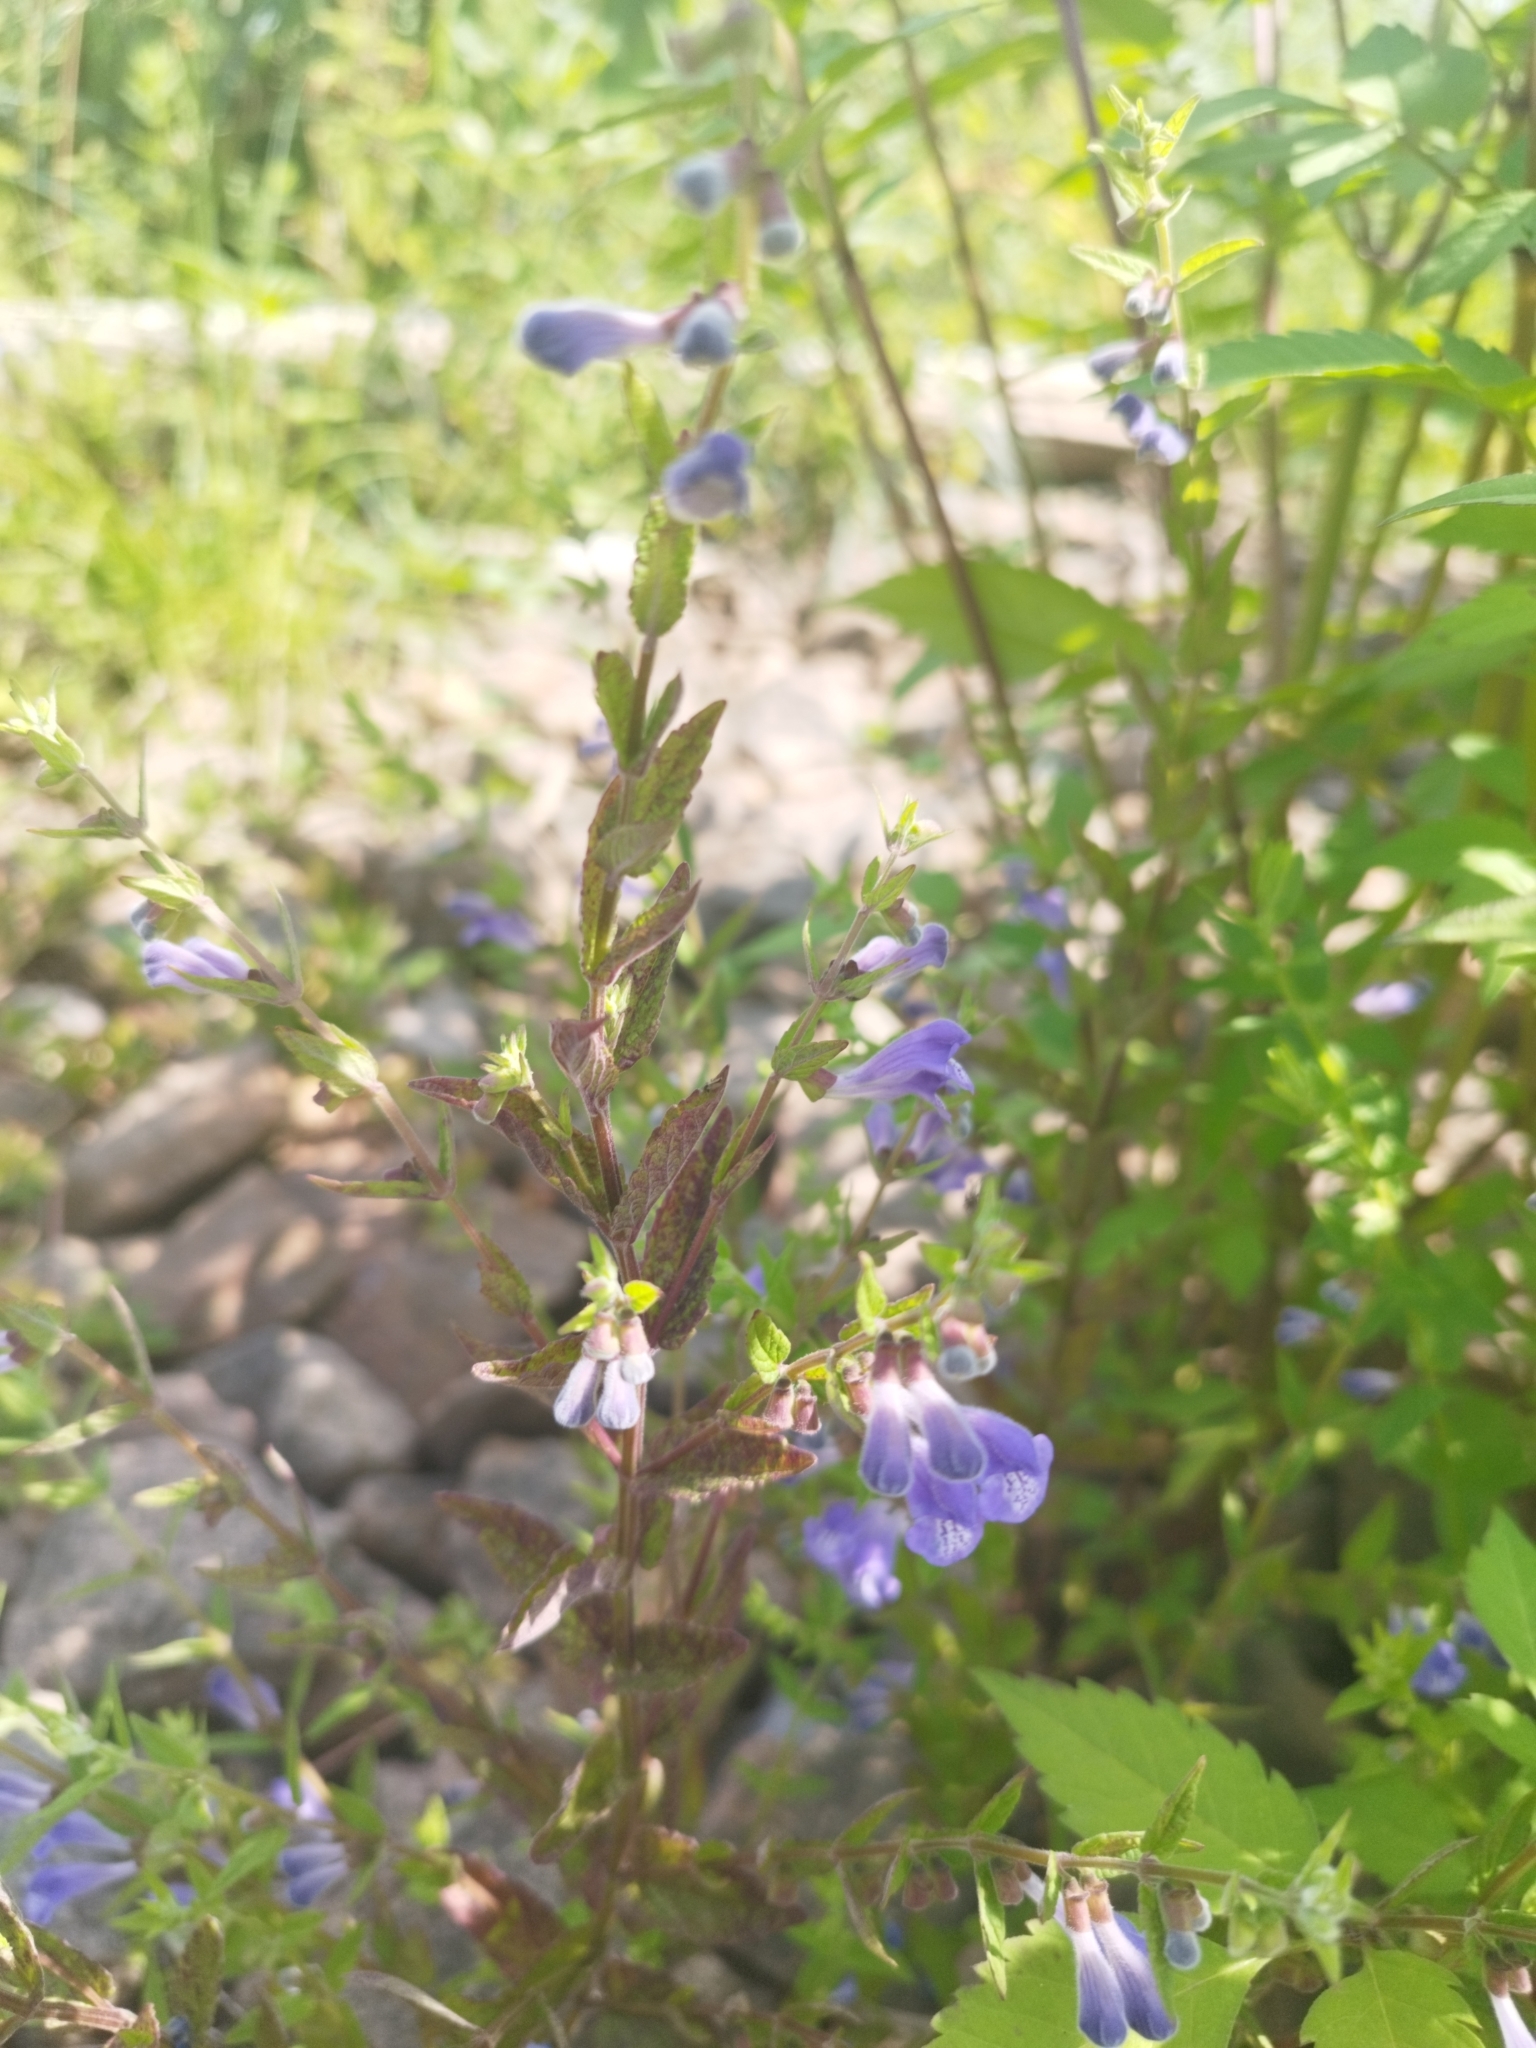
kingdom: Plantae
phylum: Tracheophyta
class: Magnoliopsida
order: Lamiales
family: Lamiaceae
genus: Scutellaria
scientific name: Scutellaria galericulata
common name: Skullcap
